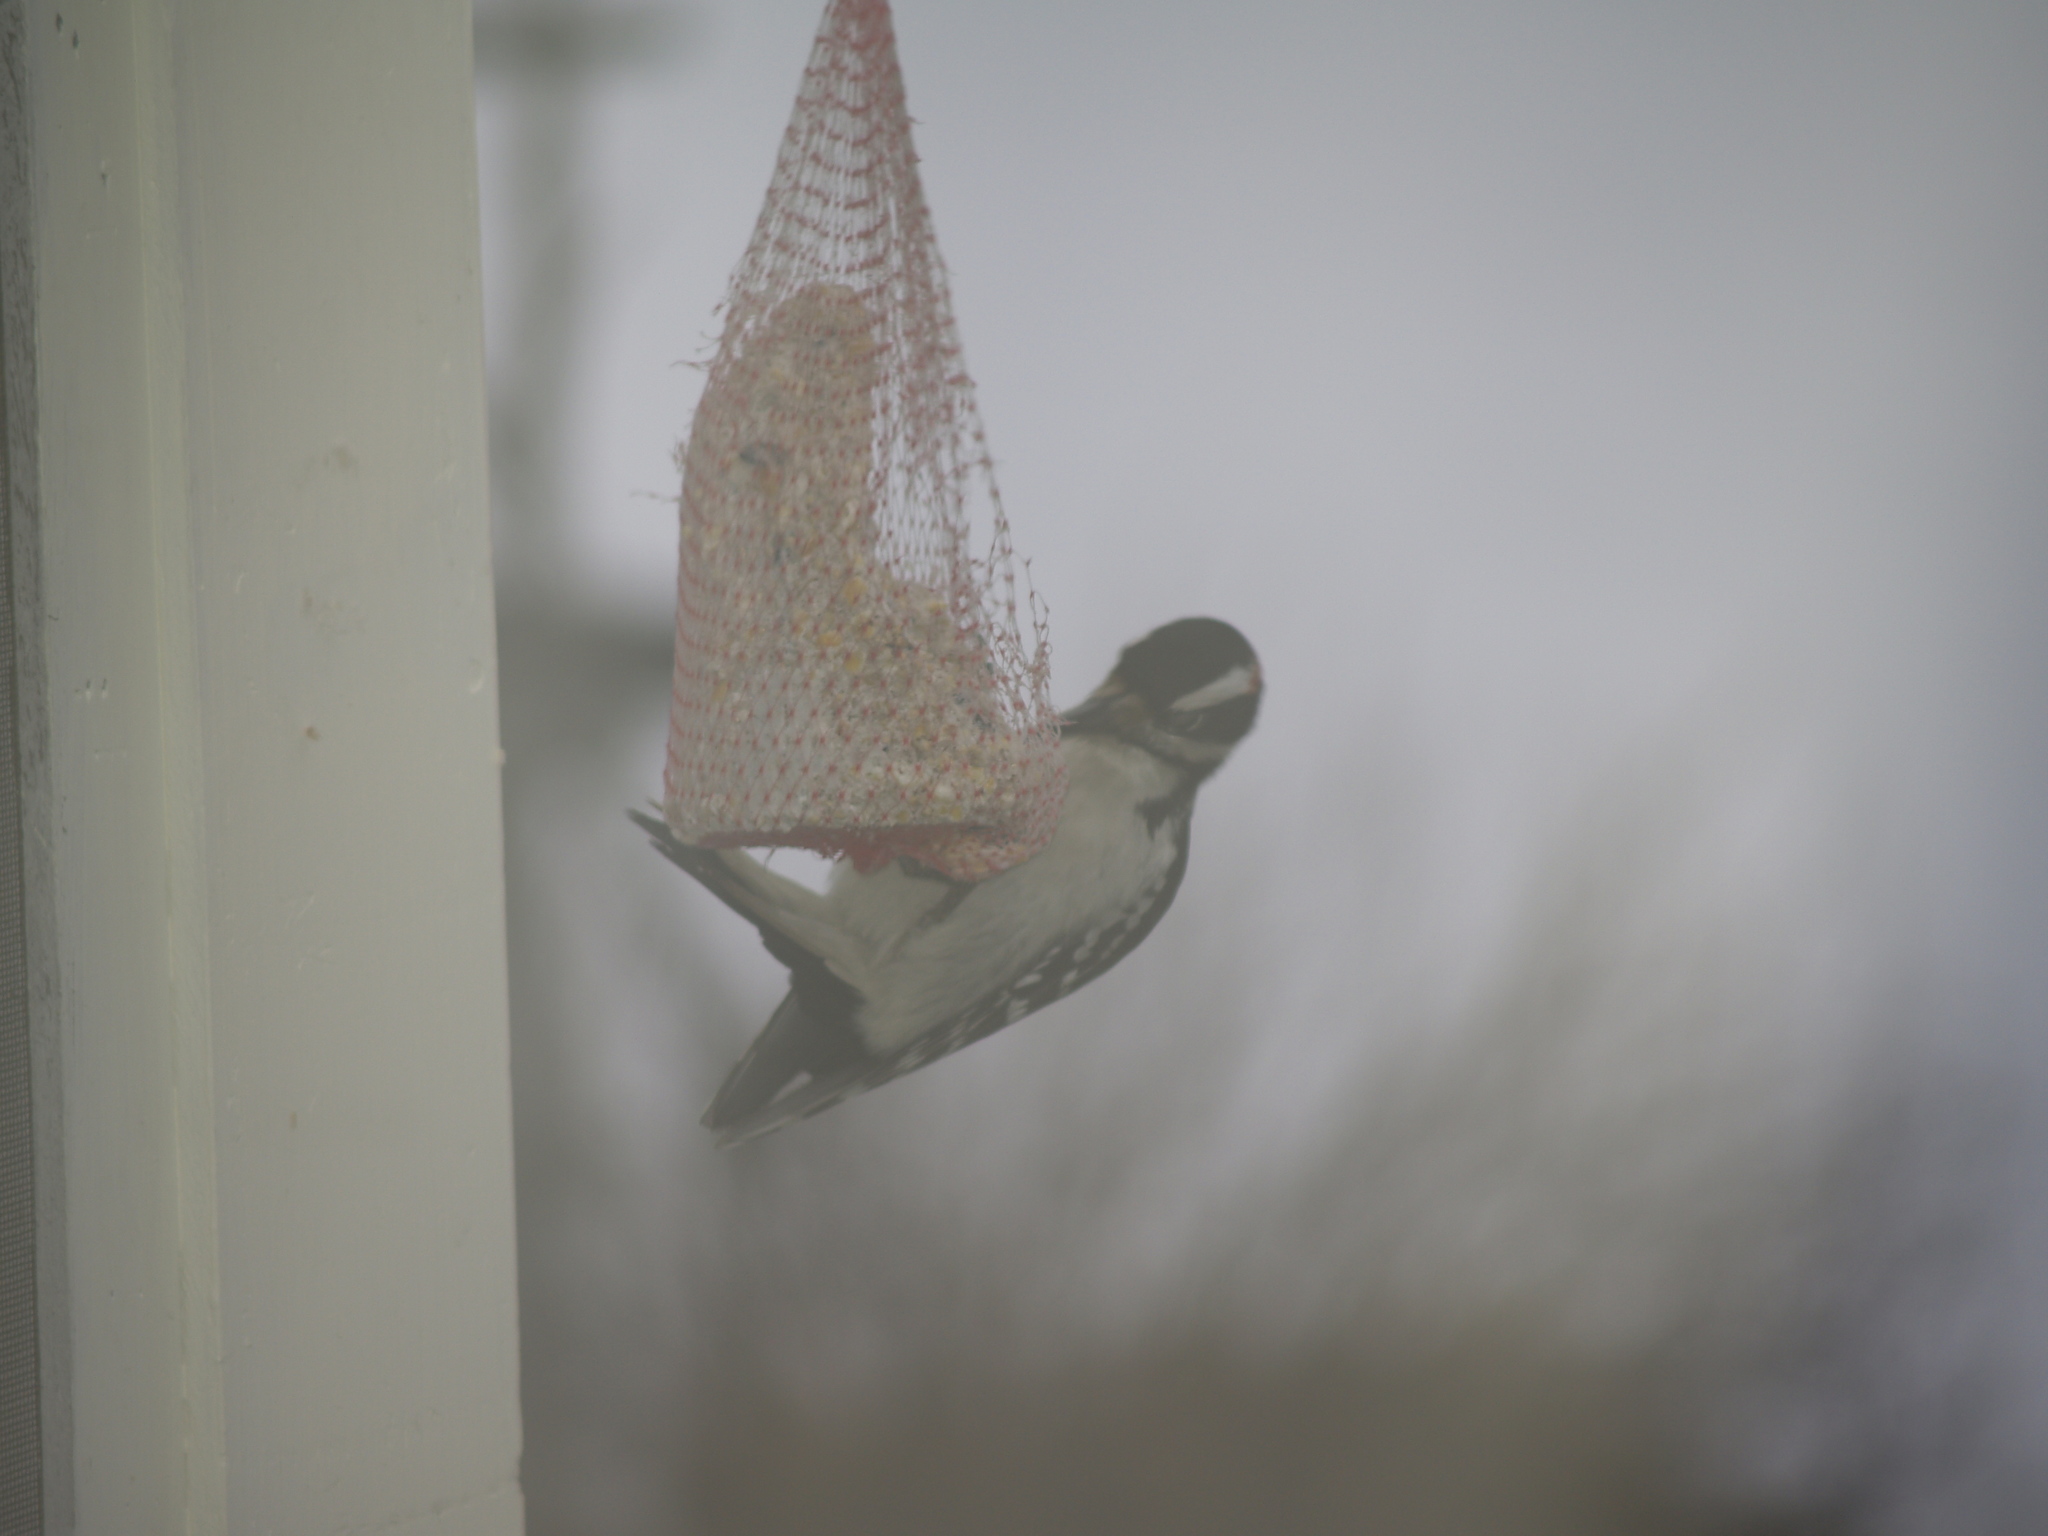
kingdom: Animalia
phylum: Chordata
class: Aves
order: Piciformes
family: Picidae
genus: Leuconotopicus
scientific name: Leuconotopicus villosus
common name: Hairy woodpecker
